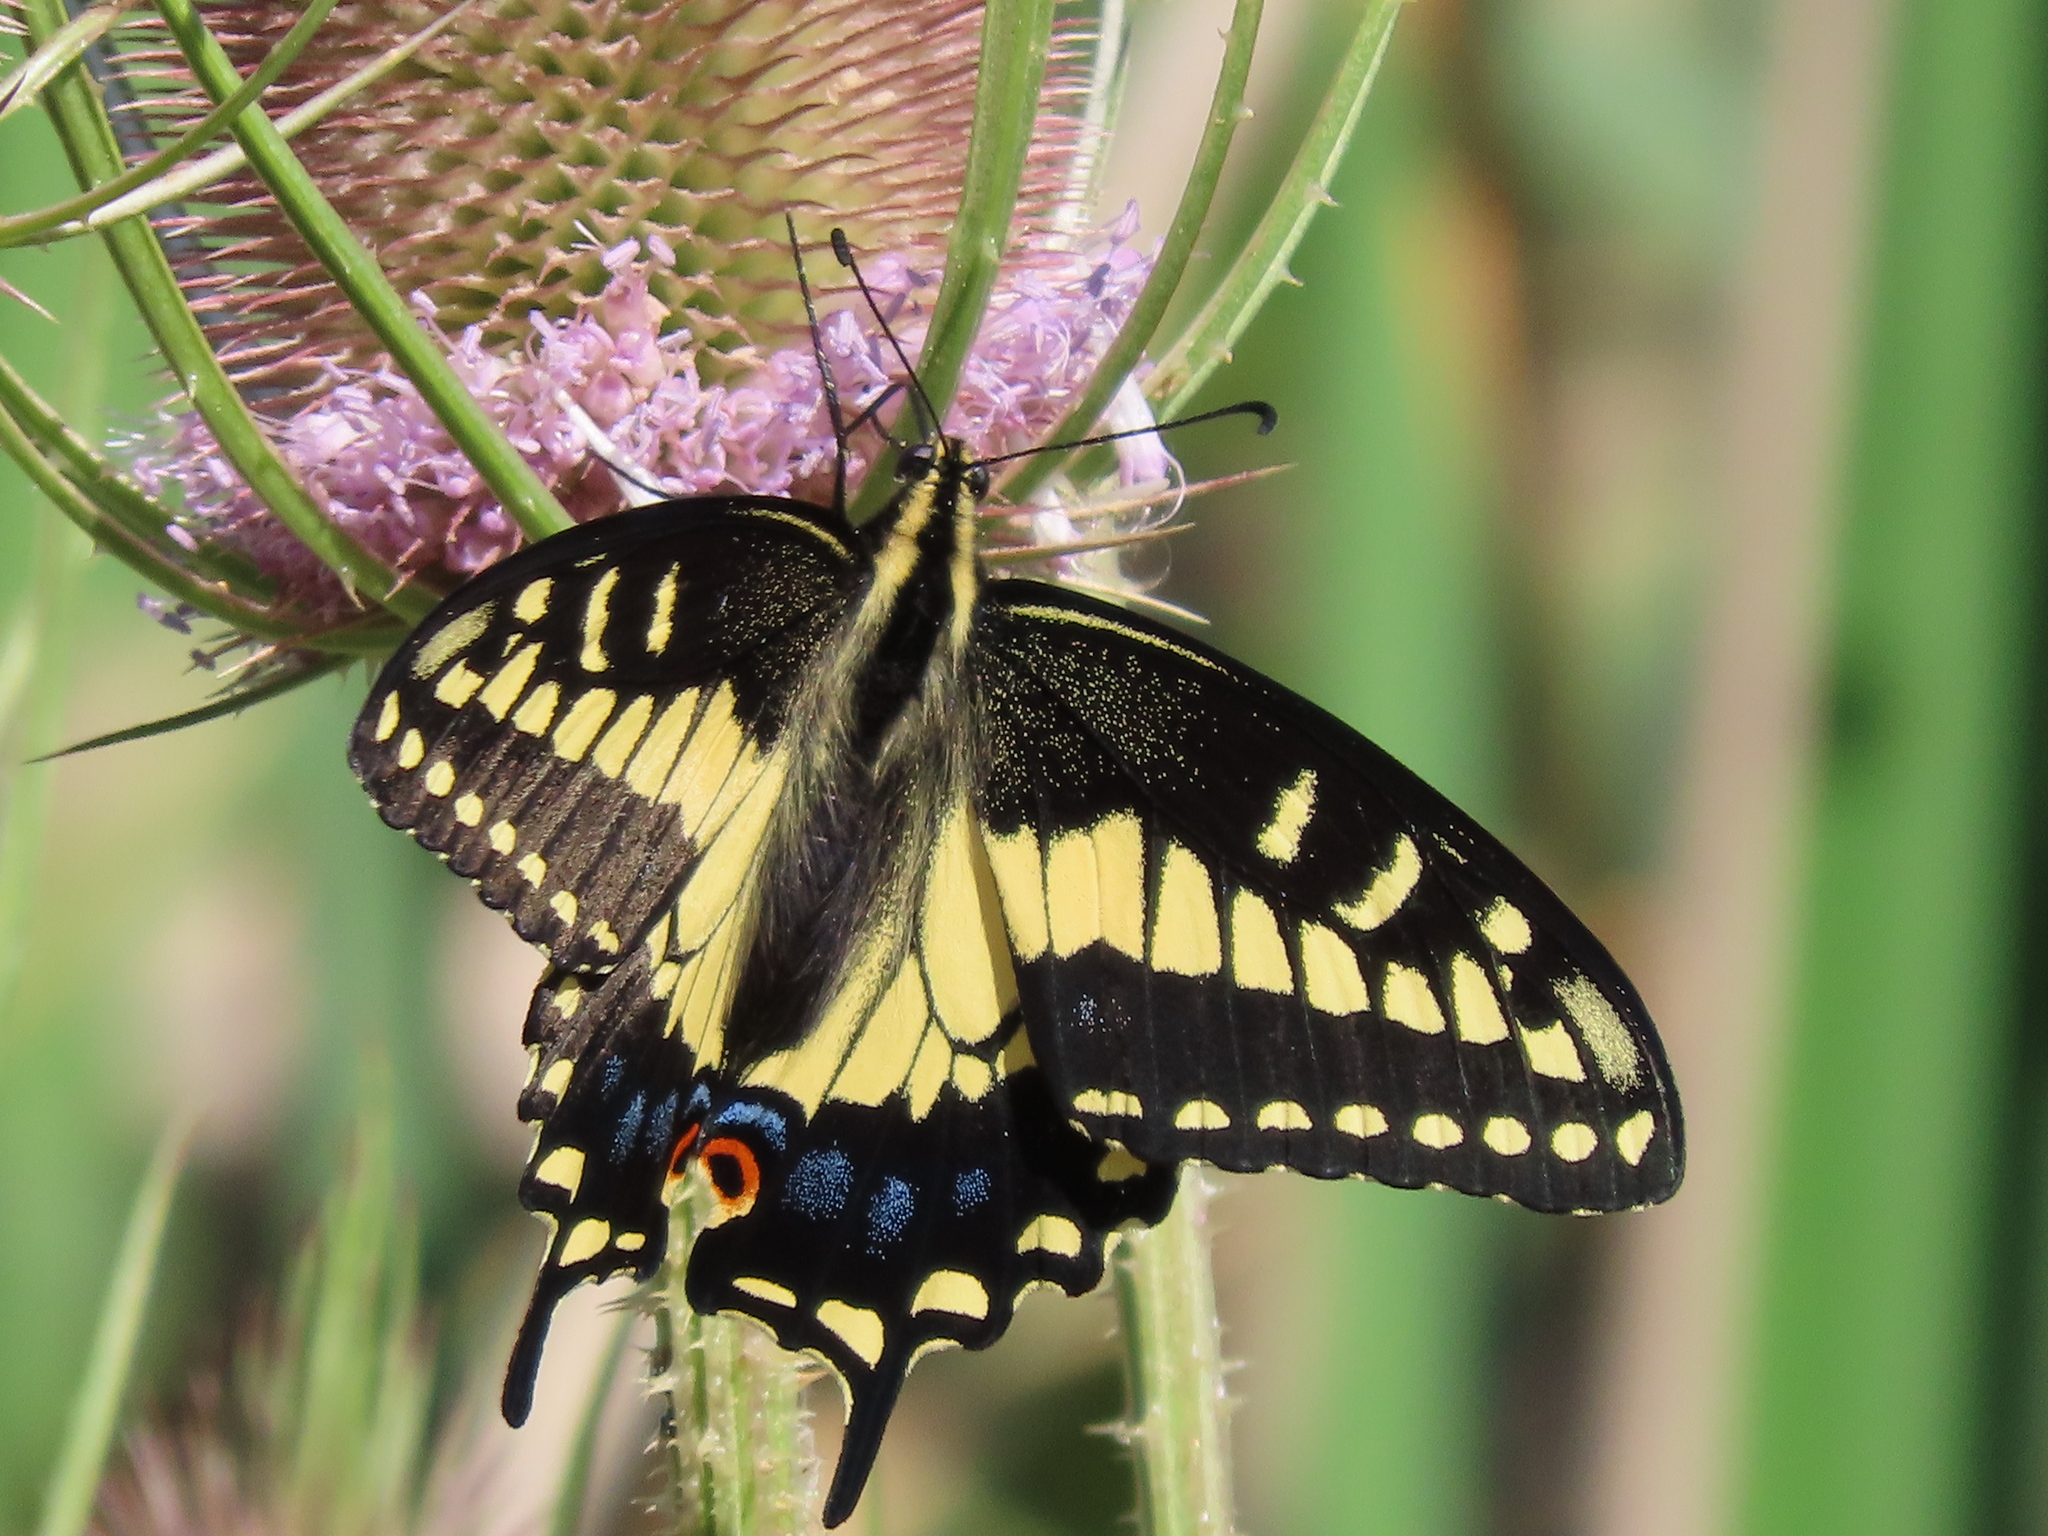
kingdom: Animalia
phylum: Arthropoda
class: Insecta
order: Lepidoptera
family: Papilionidae
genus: Papilio
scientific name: Papilio zelicaon
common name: Anise swallowtail
